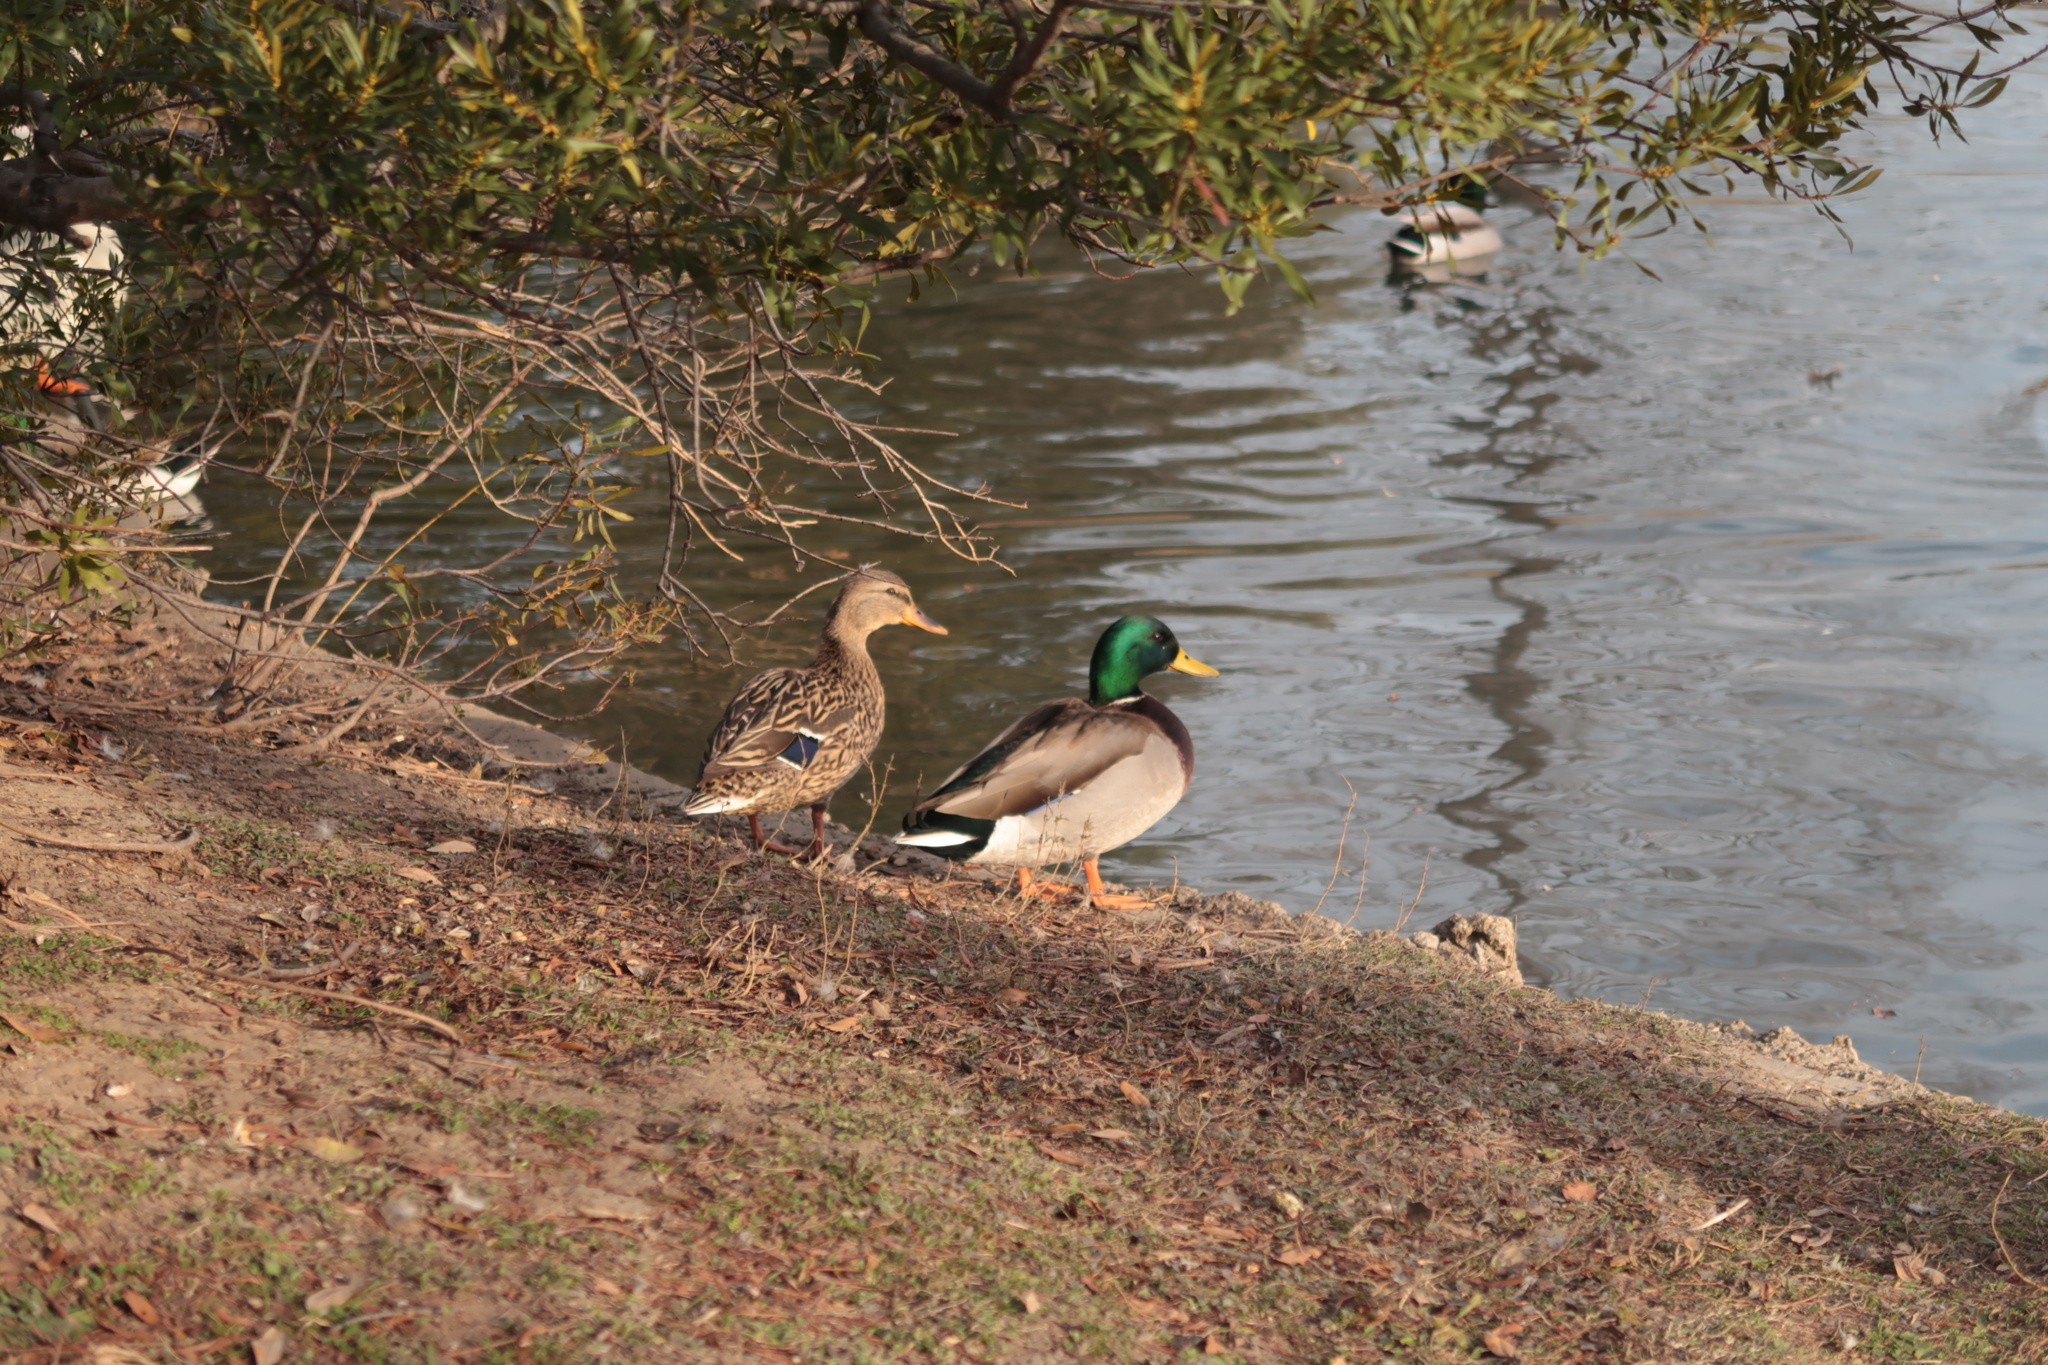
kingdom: Animalia
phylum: Chordata
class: Aves
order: Anseriformes
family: Anatidae
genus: Anas
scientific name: Anas platyrhynchos
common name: Mallard
